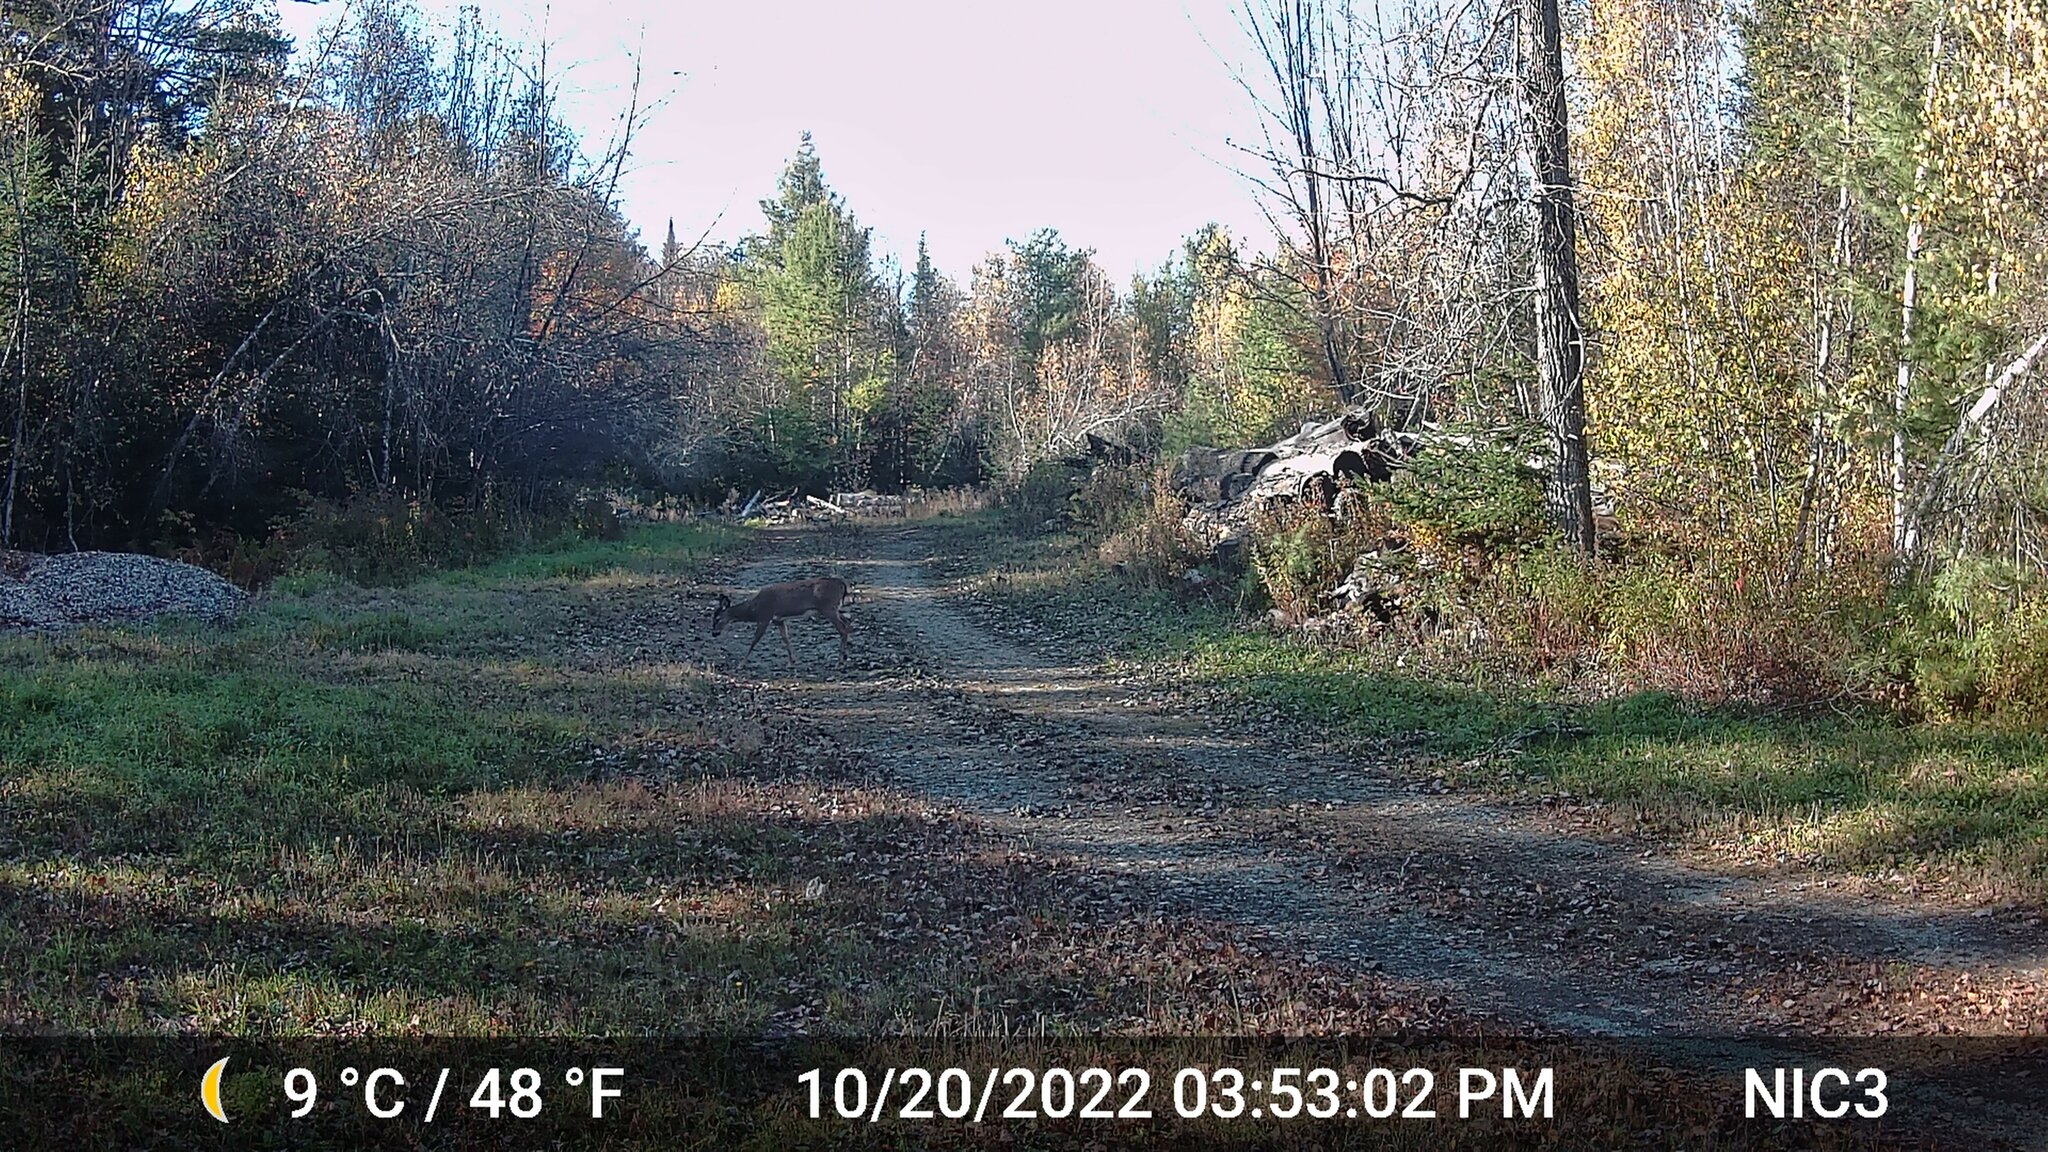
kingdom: Animalia
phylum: Chordata
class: Mammalia
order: Artiodactyla
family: Cervidae
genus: Odocoileus
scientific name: Odocoileus virginianus
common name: White-tailed deer
